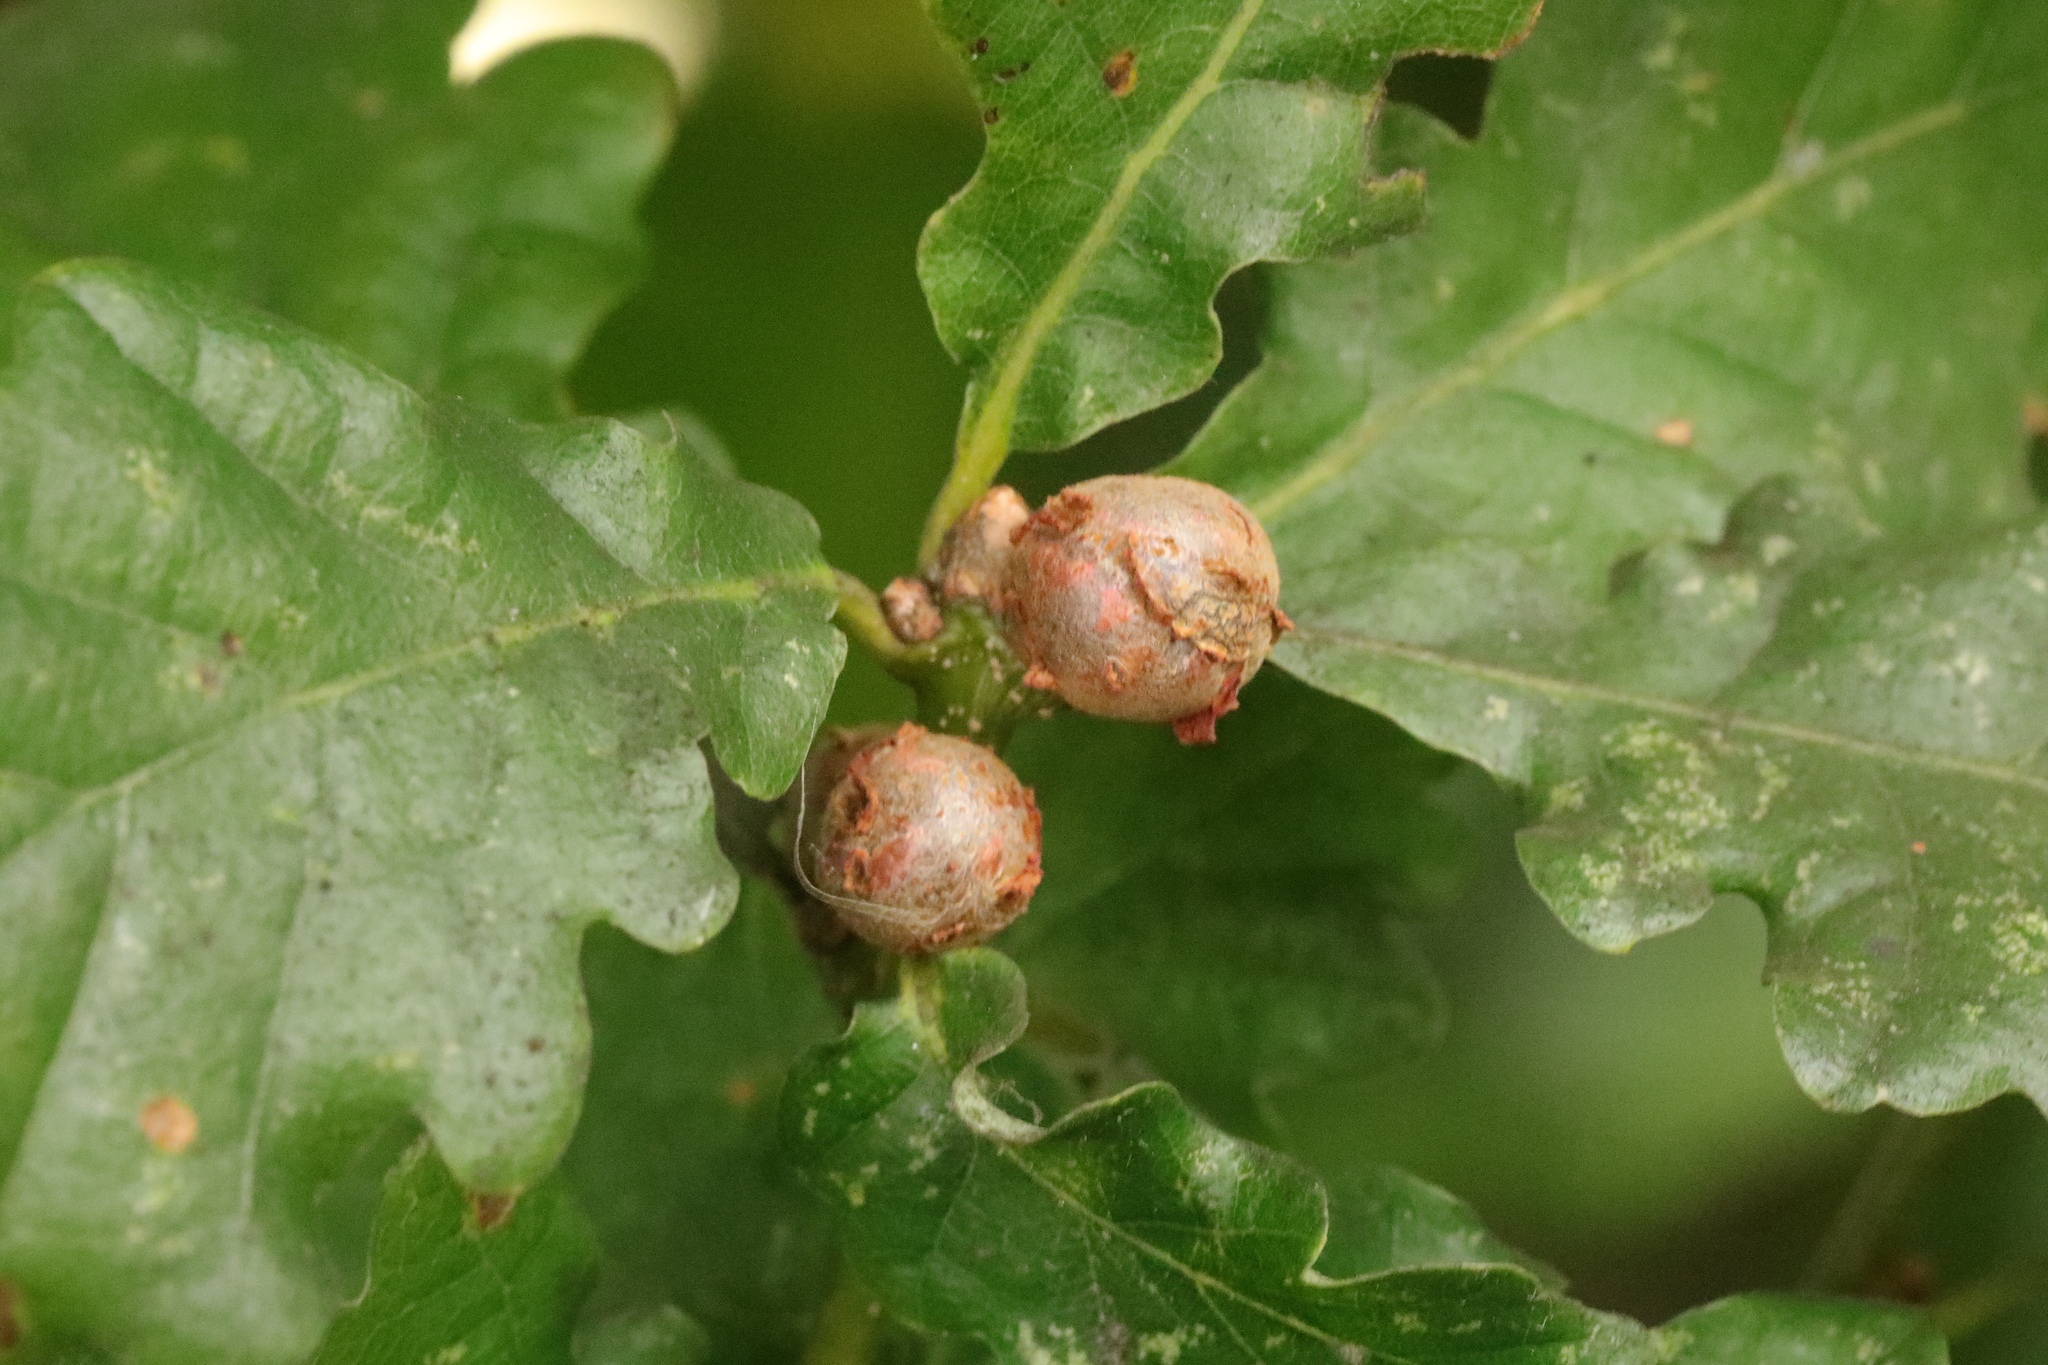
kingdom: Animalia
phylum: Arthropoda
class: Insecta
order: Hymenoptera
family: Cynipidae
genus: Andricus
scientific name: Andricus lignicolus
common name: Cola-nut gall
